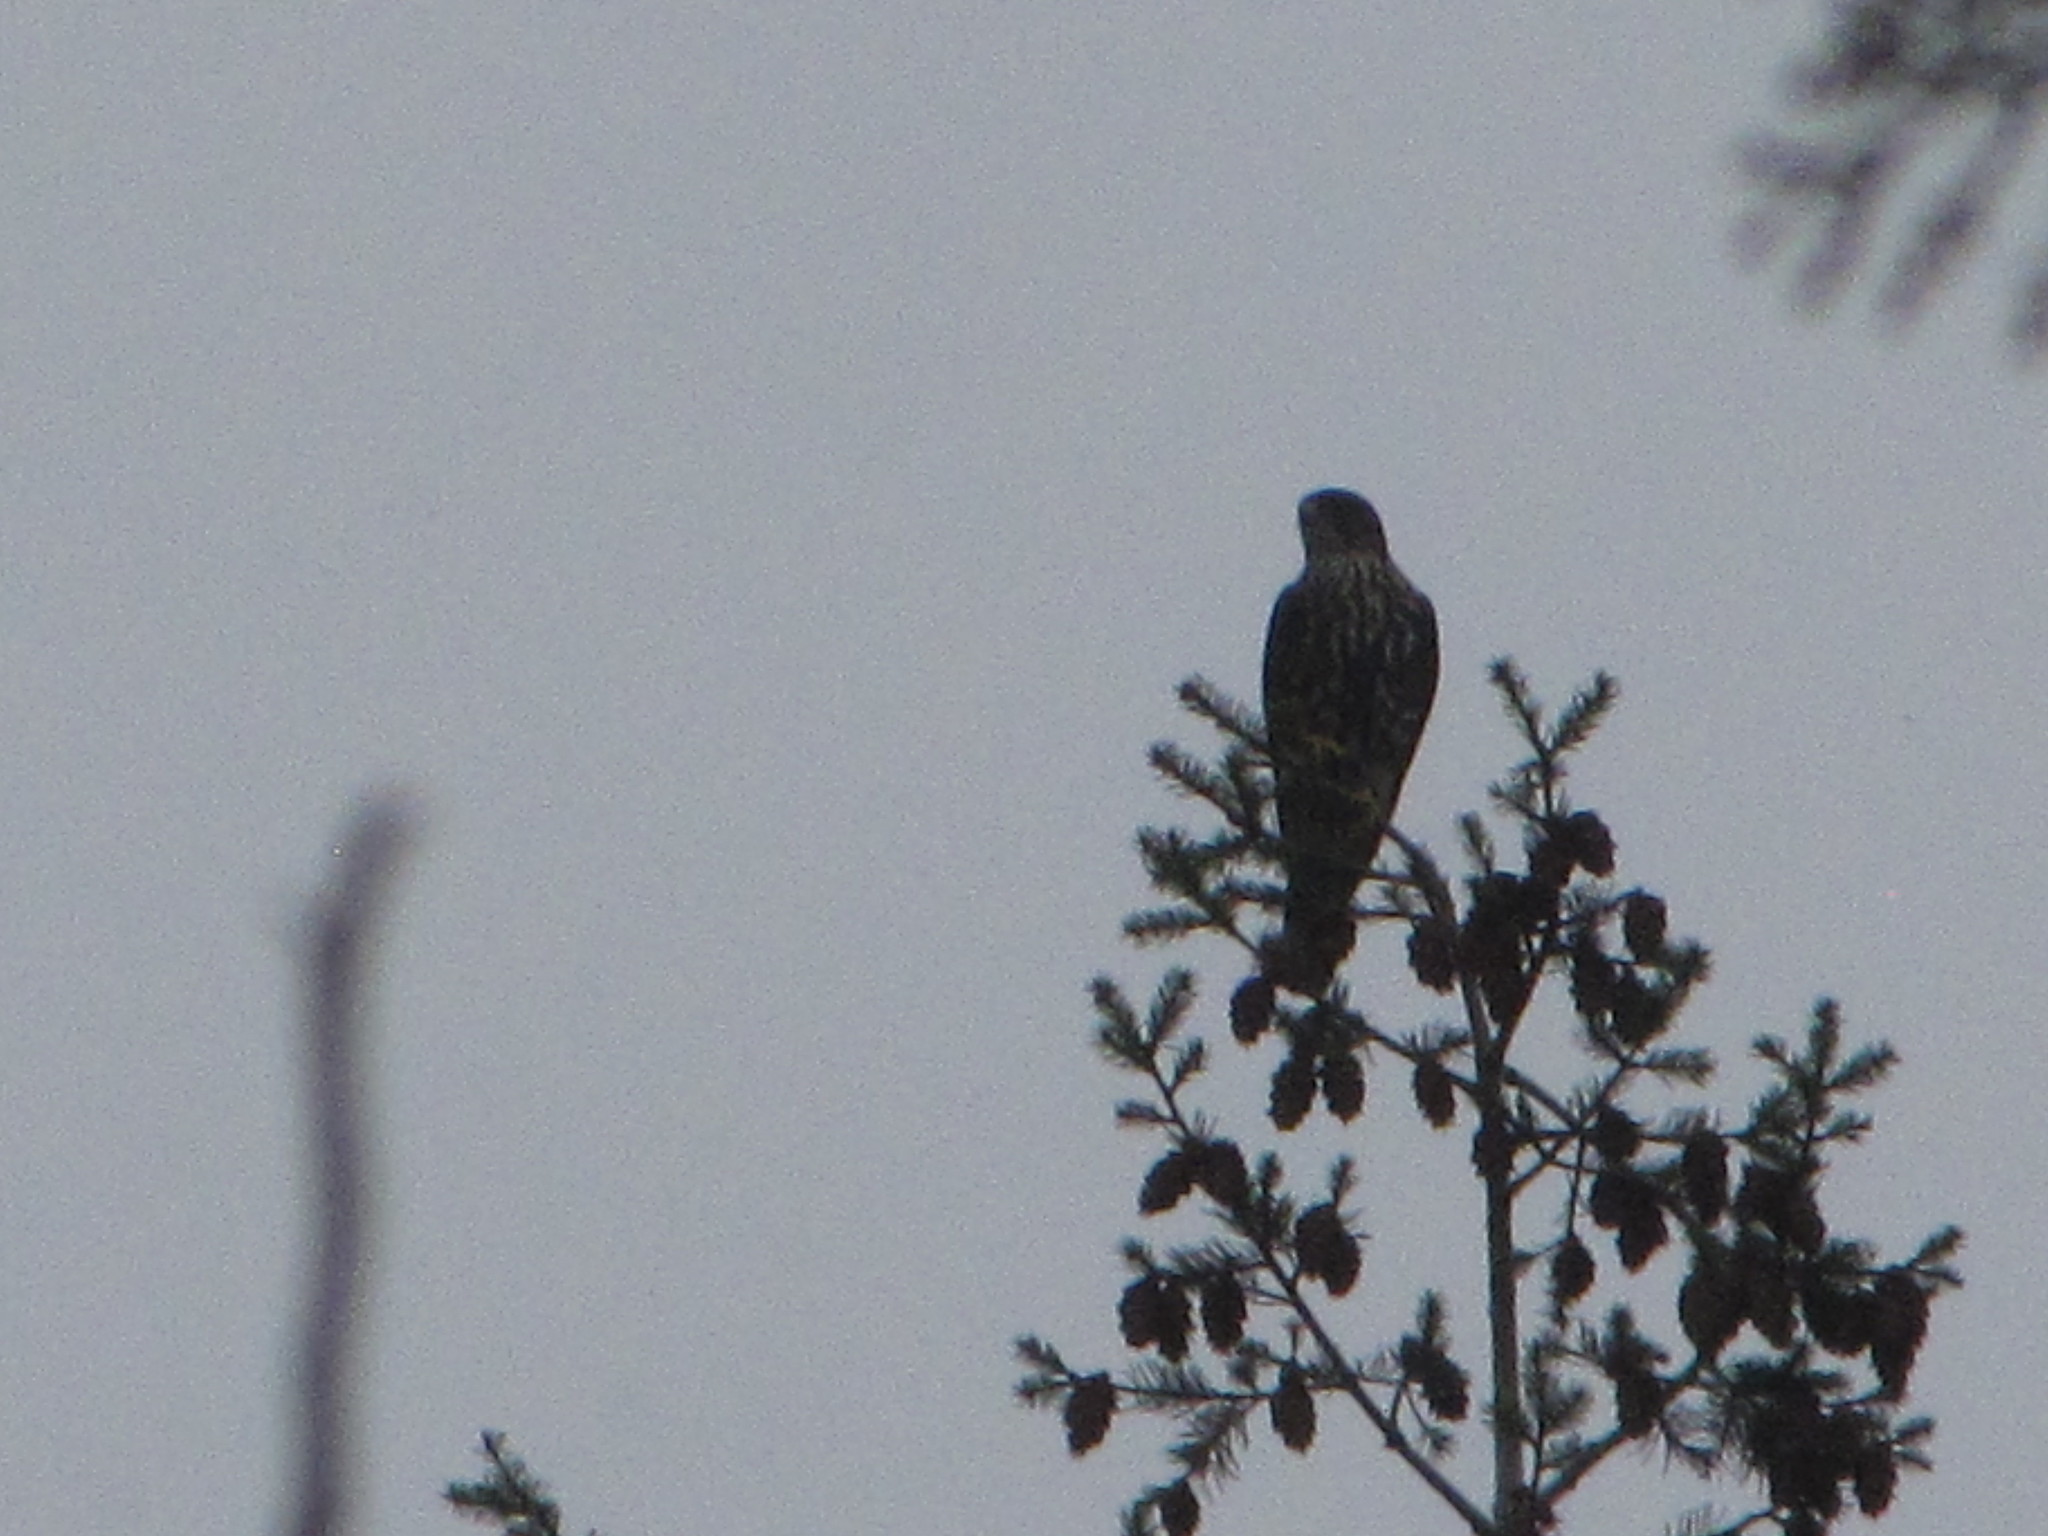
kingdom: Animalia
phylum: Chordata
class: Aves
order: Falconiformes
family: Falconidae
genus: Falco
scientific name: Falco columbarius
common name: Merlin
